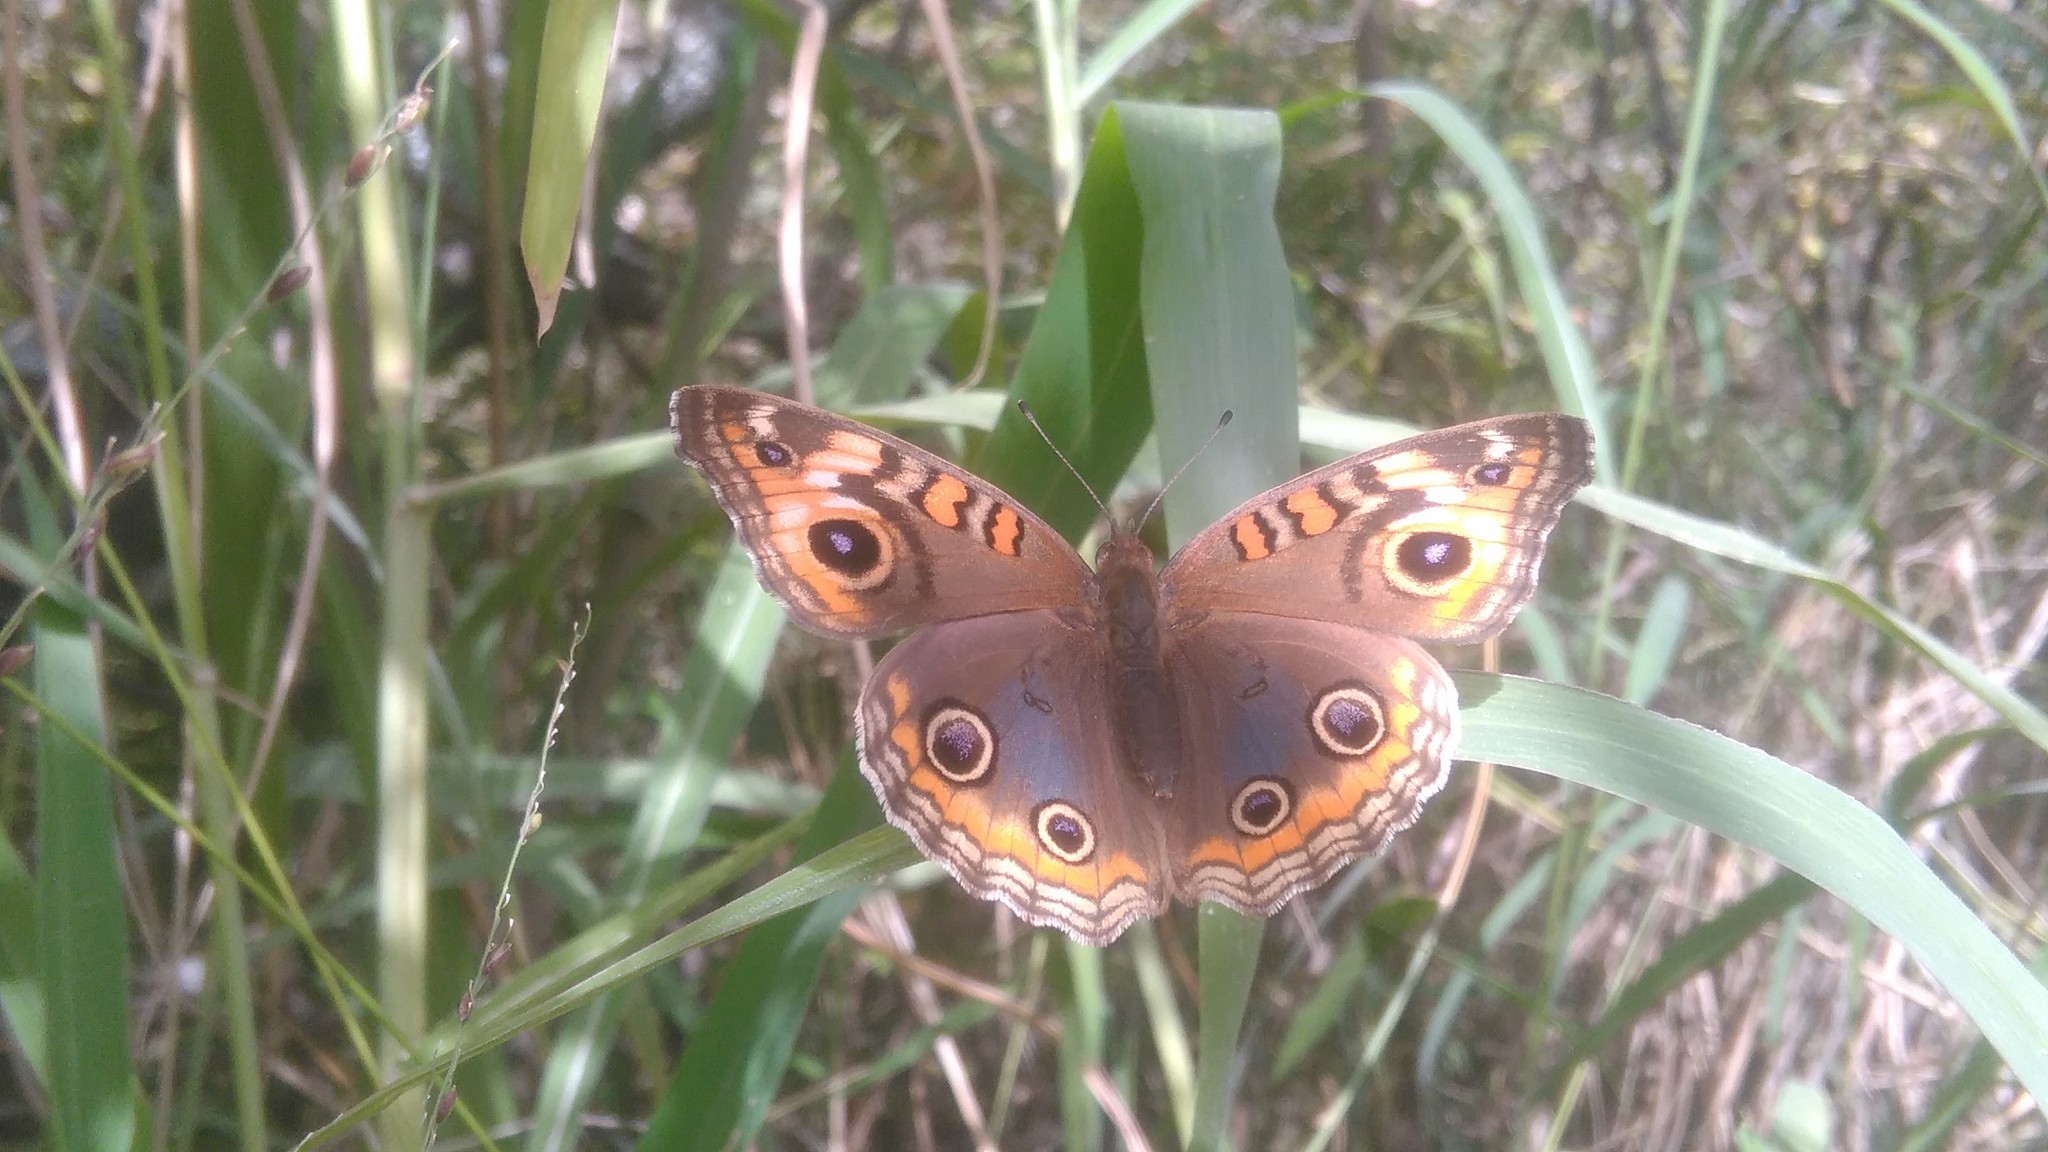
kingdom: Animalia
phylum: Arthropoda
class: Insecta
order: Lepidoptera
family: Nymphalidae
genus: Junonia
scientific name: Junonia lavinia
